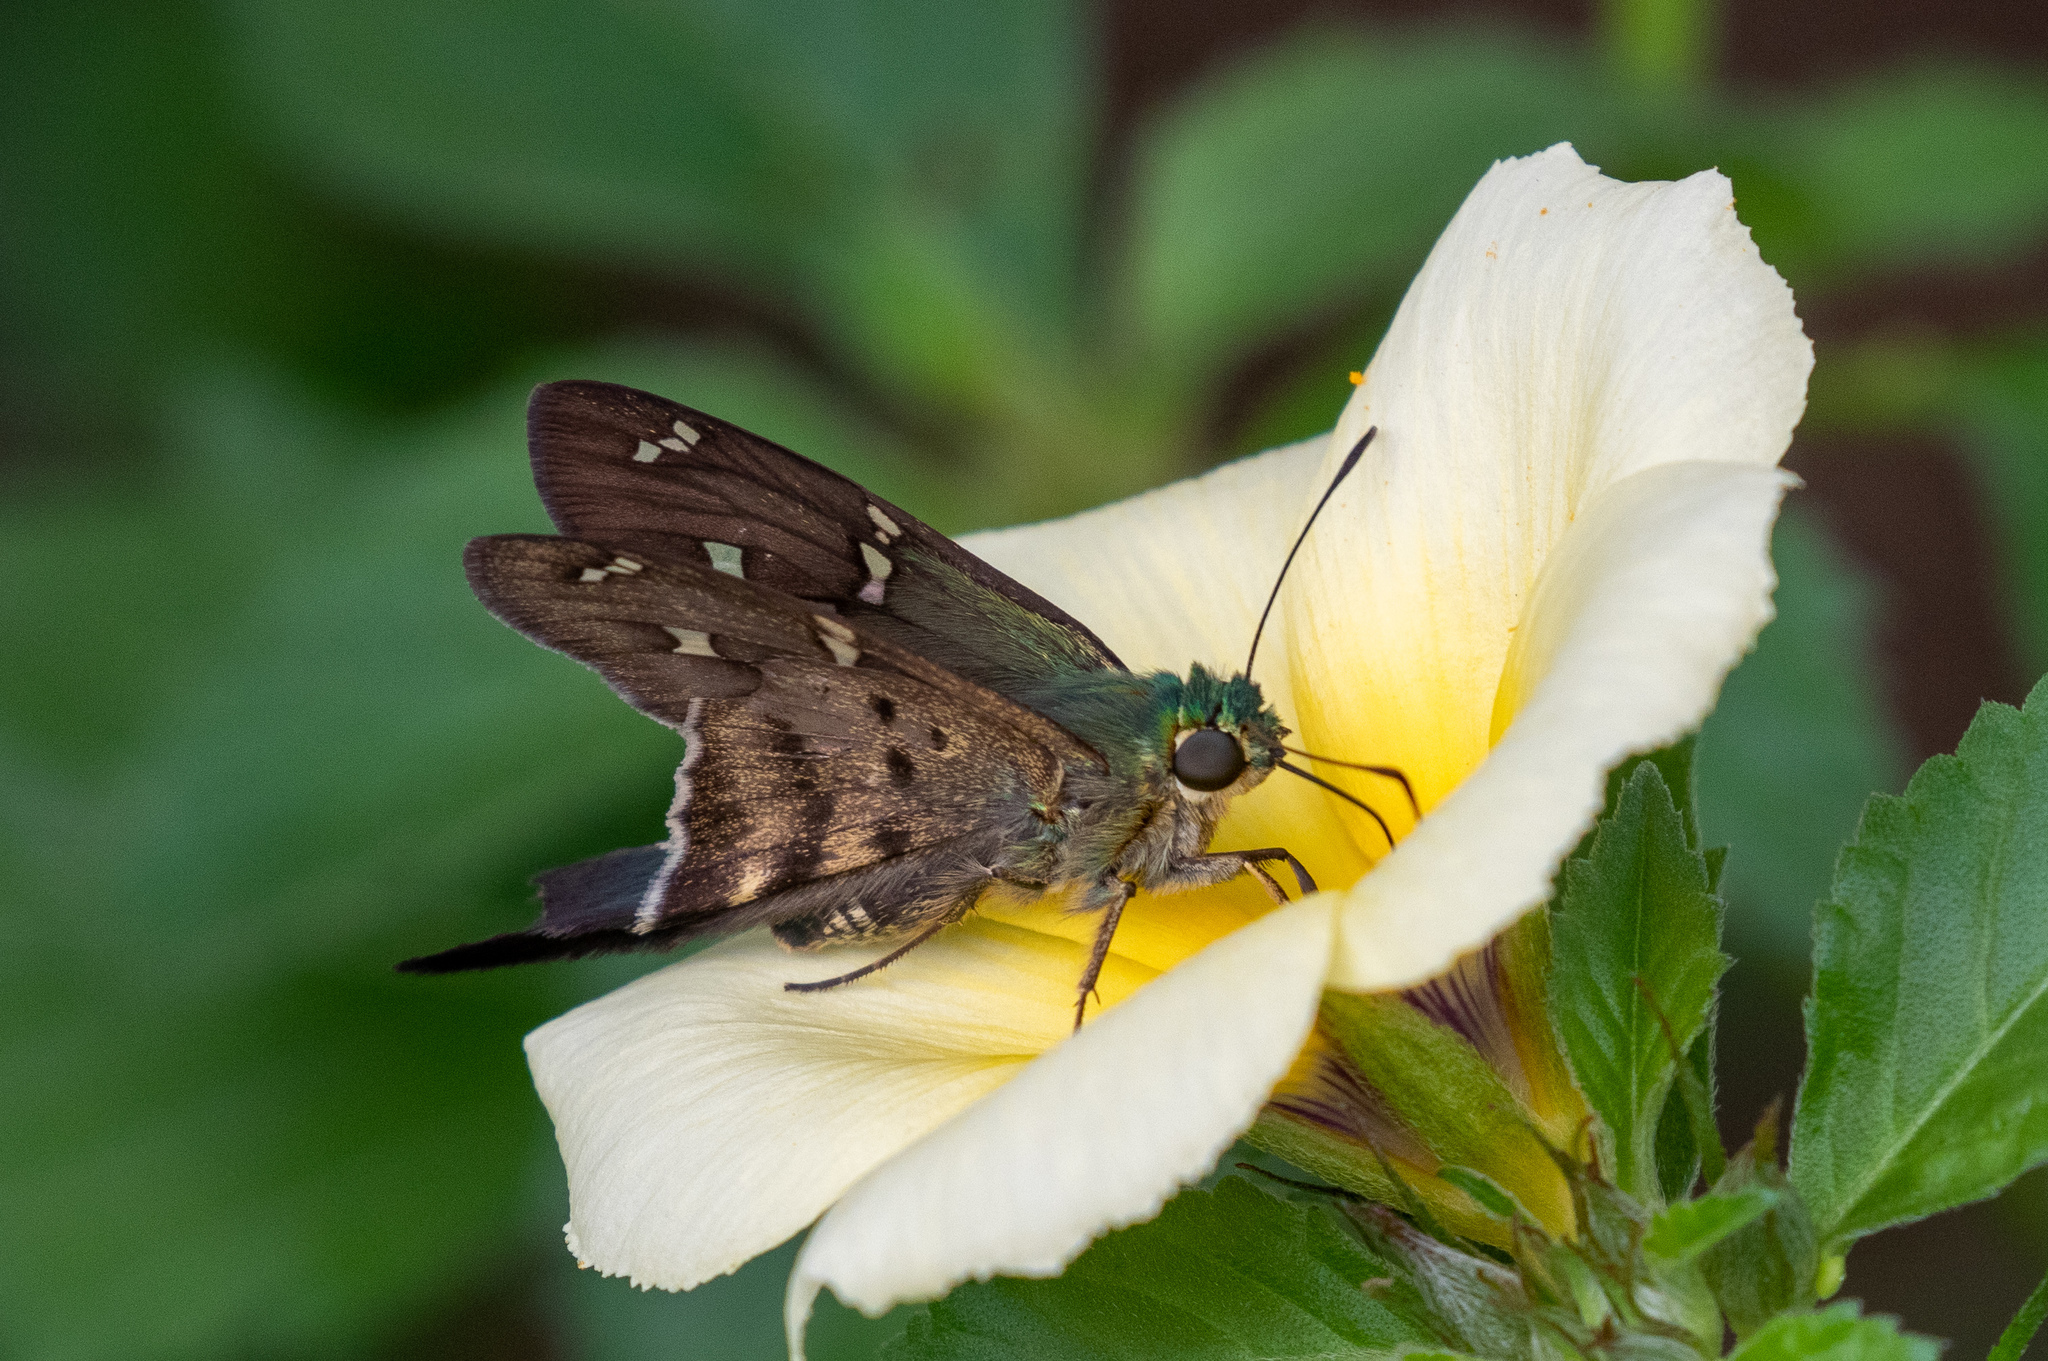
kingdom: Animalia
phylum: Arthropoda
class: Insecta
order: Lepidoptera
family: Hesperiidae
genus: Urbanus
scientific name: Urbanus proteus
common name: Long-tailed skipper
